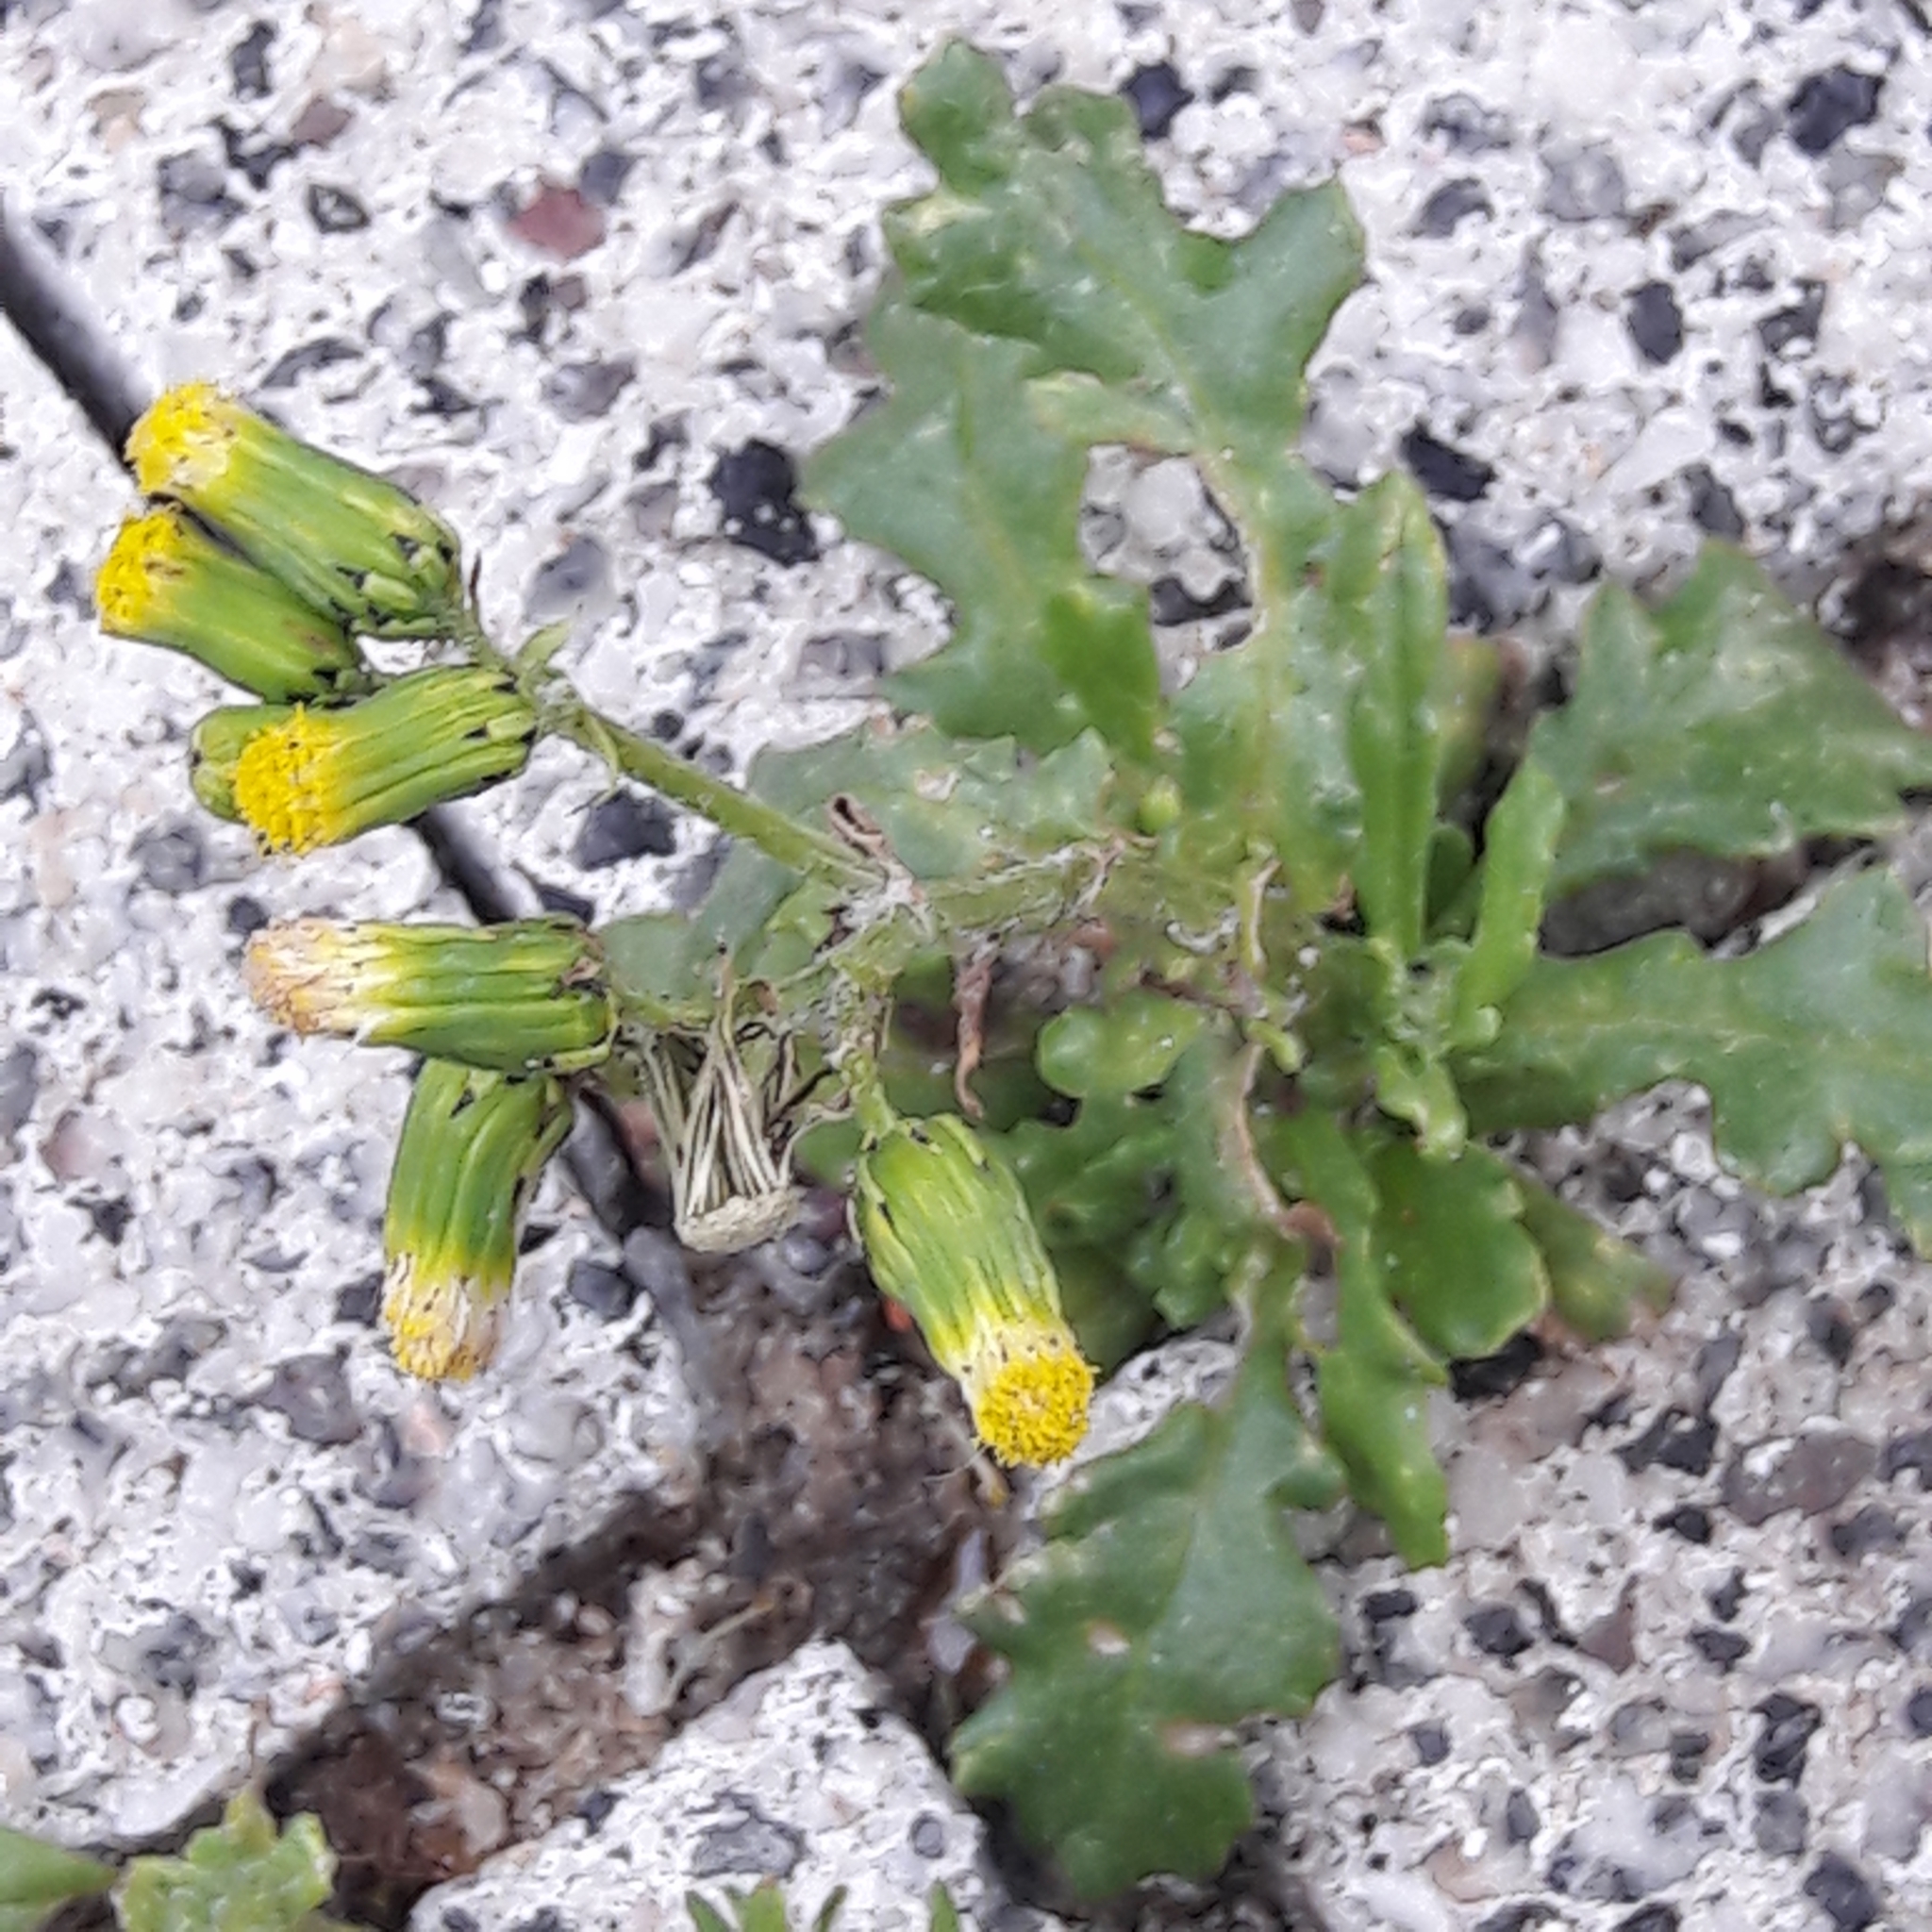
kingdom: Plantae
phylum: Tracheophyta
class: Magnoliopsida
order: Asterales
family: Asteraceae
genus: Senecio
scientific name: Senecio vulgaris
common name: Old-man-in-the-spring
